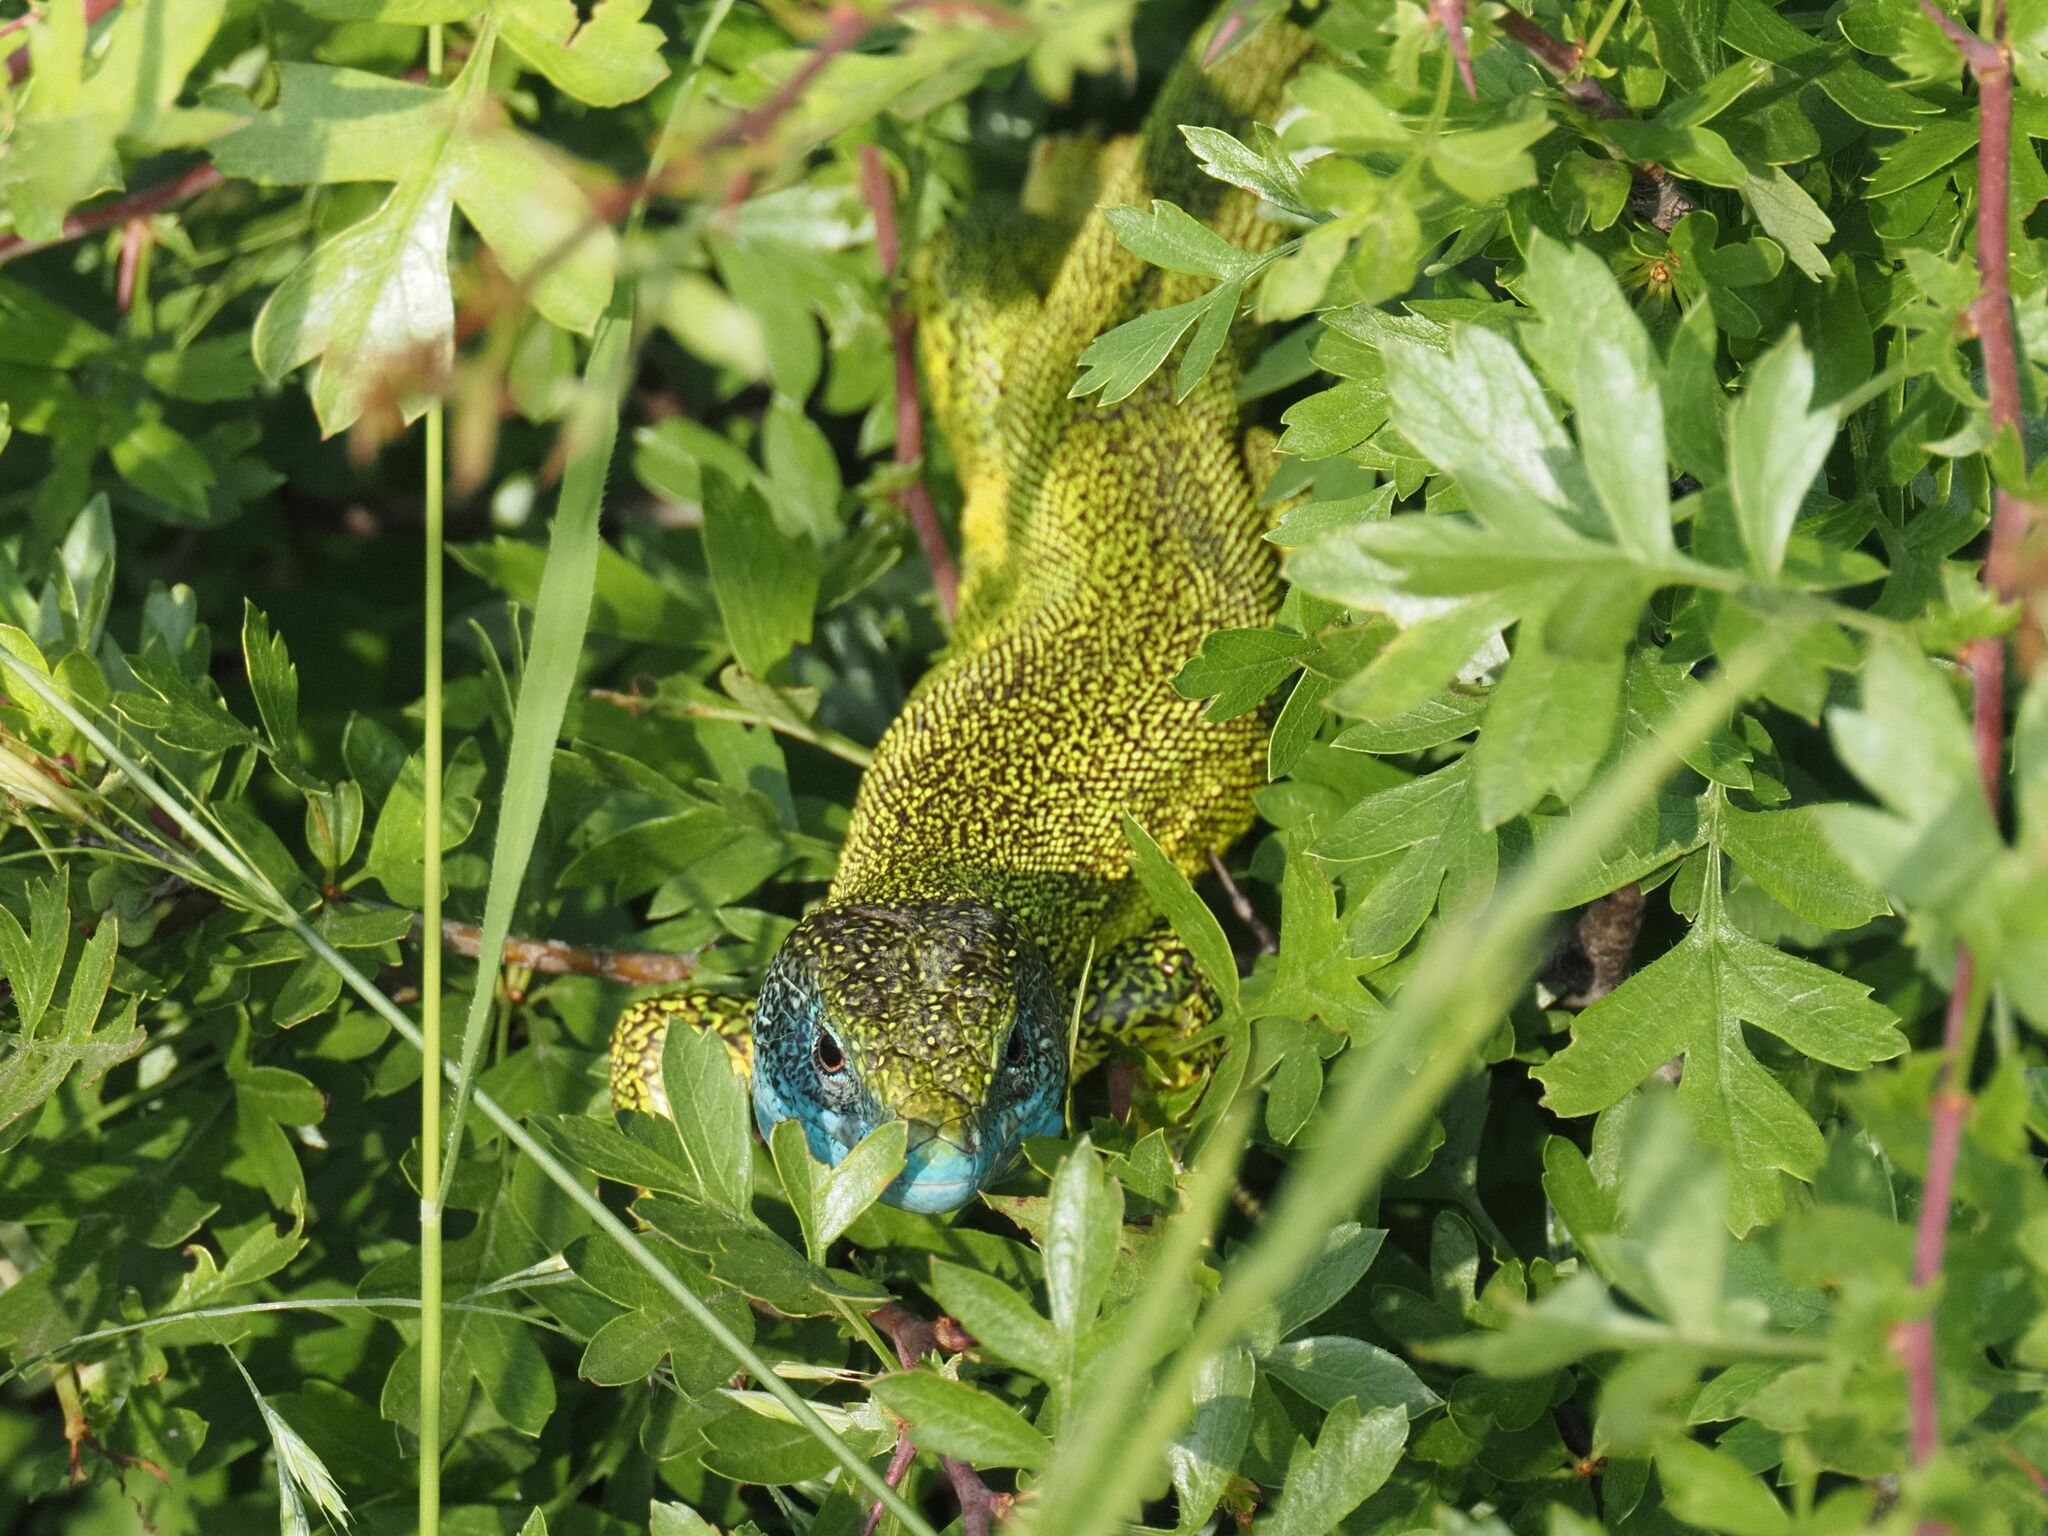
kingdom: Animalia
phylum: Chordata
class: Squamata
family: Lacertidae
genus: Lacerta
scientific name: Lacerta viridis
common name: European green lizard
